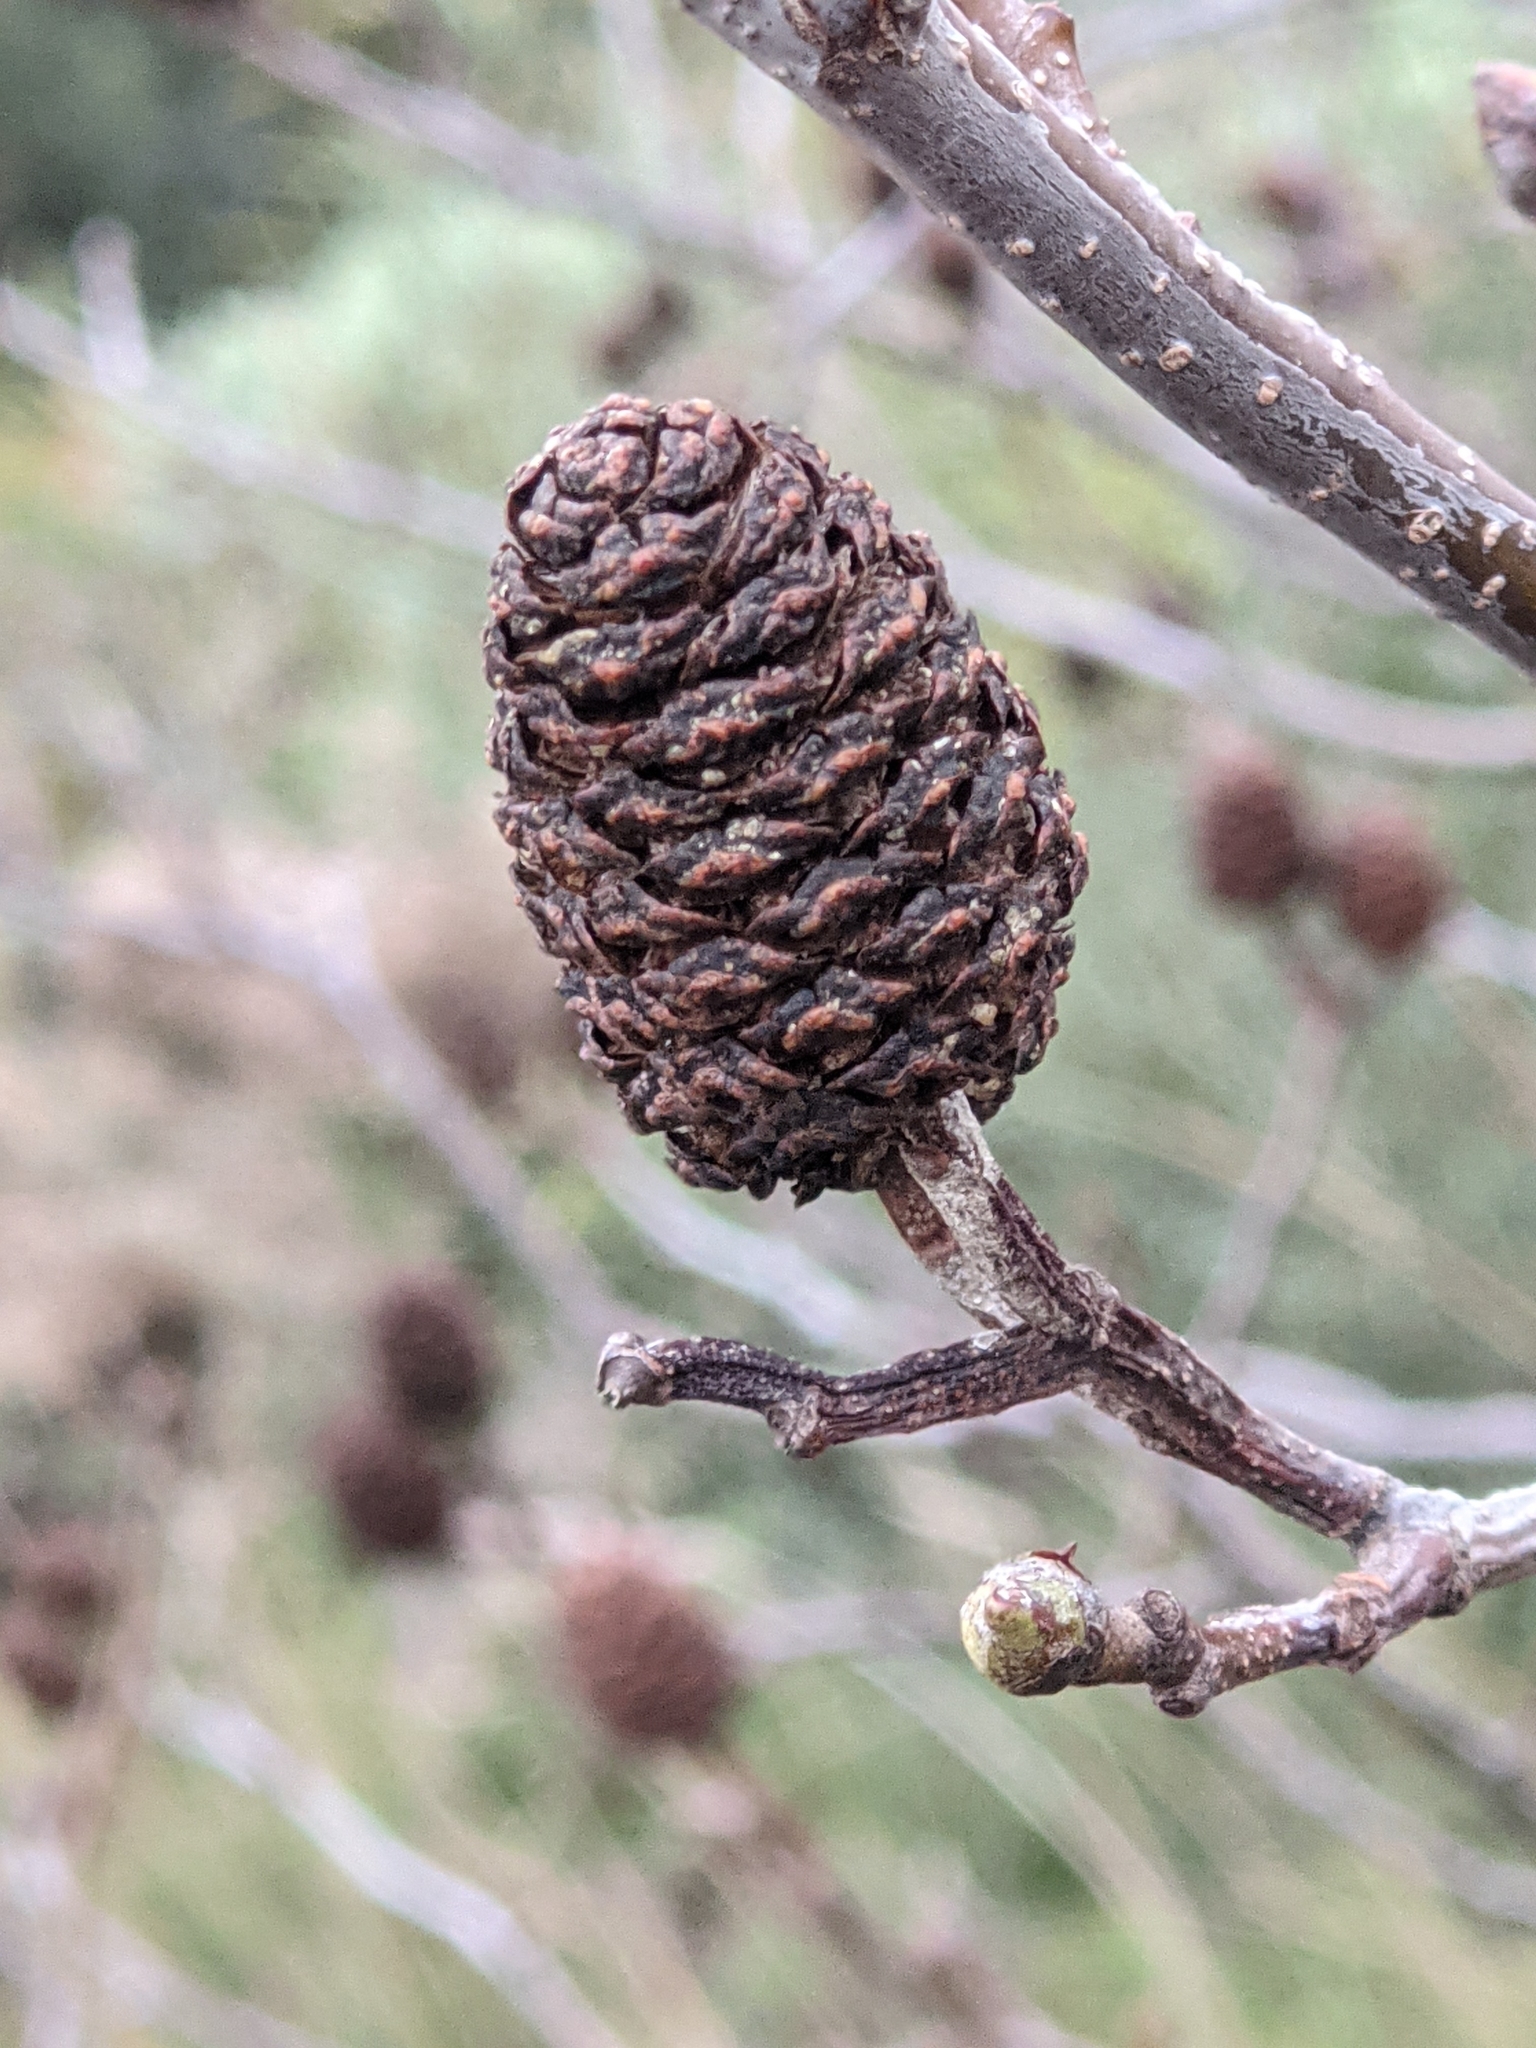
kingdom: Plantae
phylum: Tracheophyta
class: Magnoliopsida
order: Fagales
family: Betulaceae
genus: Alnus
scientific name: Alnus cordata
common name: Italian alder
